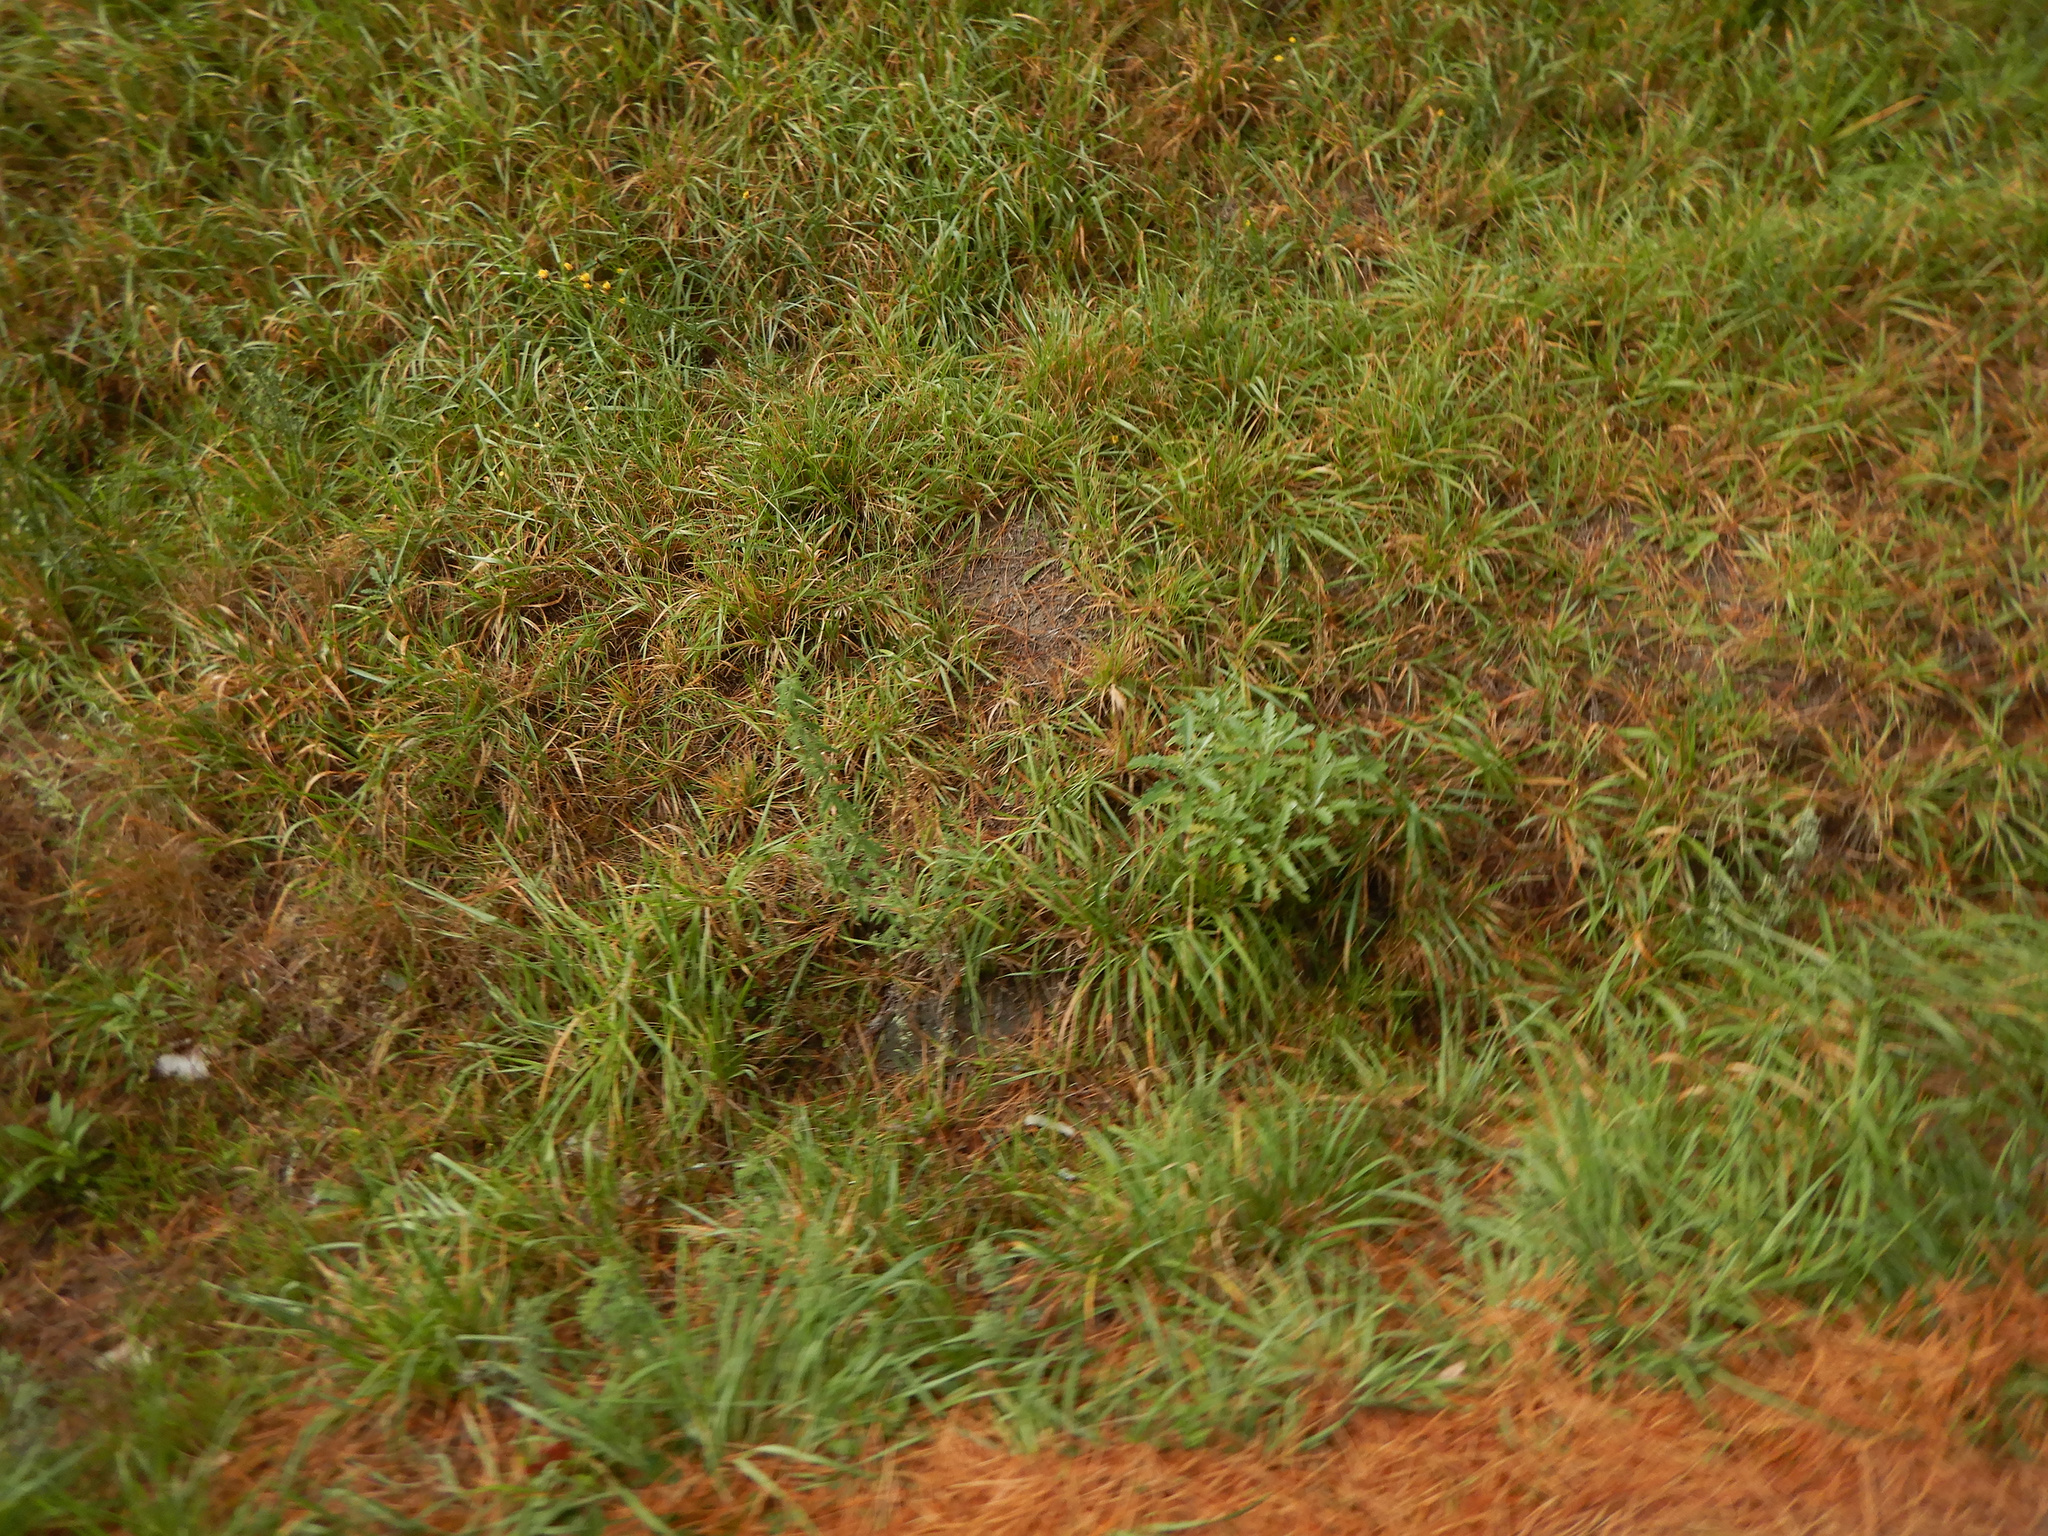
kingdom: Plantae
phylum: Tracheophyta
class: Magnoliopsida
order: Asterales
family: Asteraceae
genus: Senecio
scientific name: Senecio glomeratus
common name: Cutleaf burnweed
